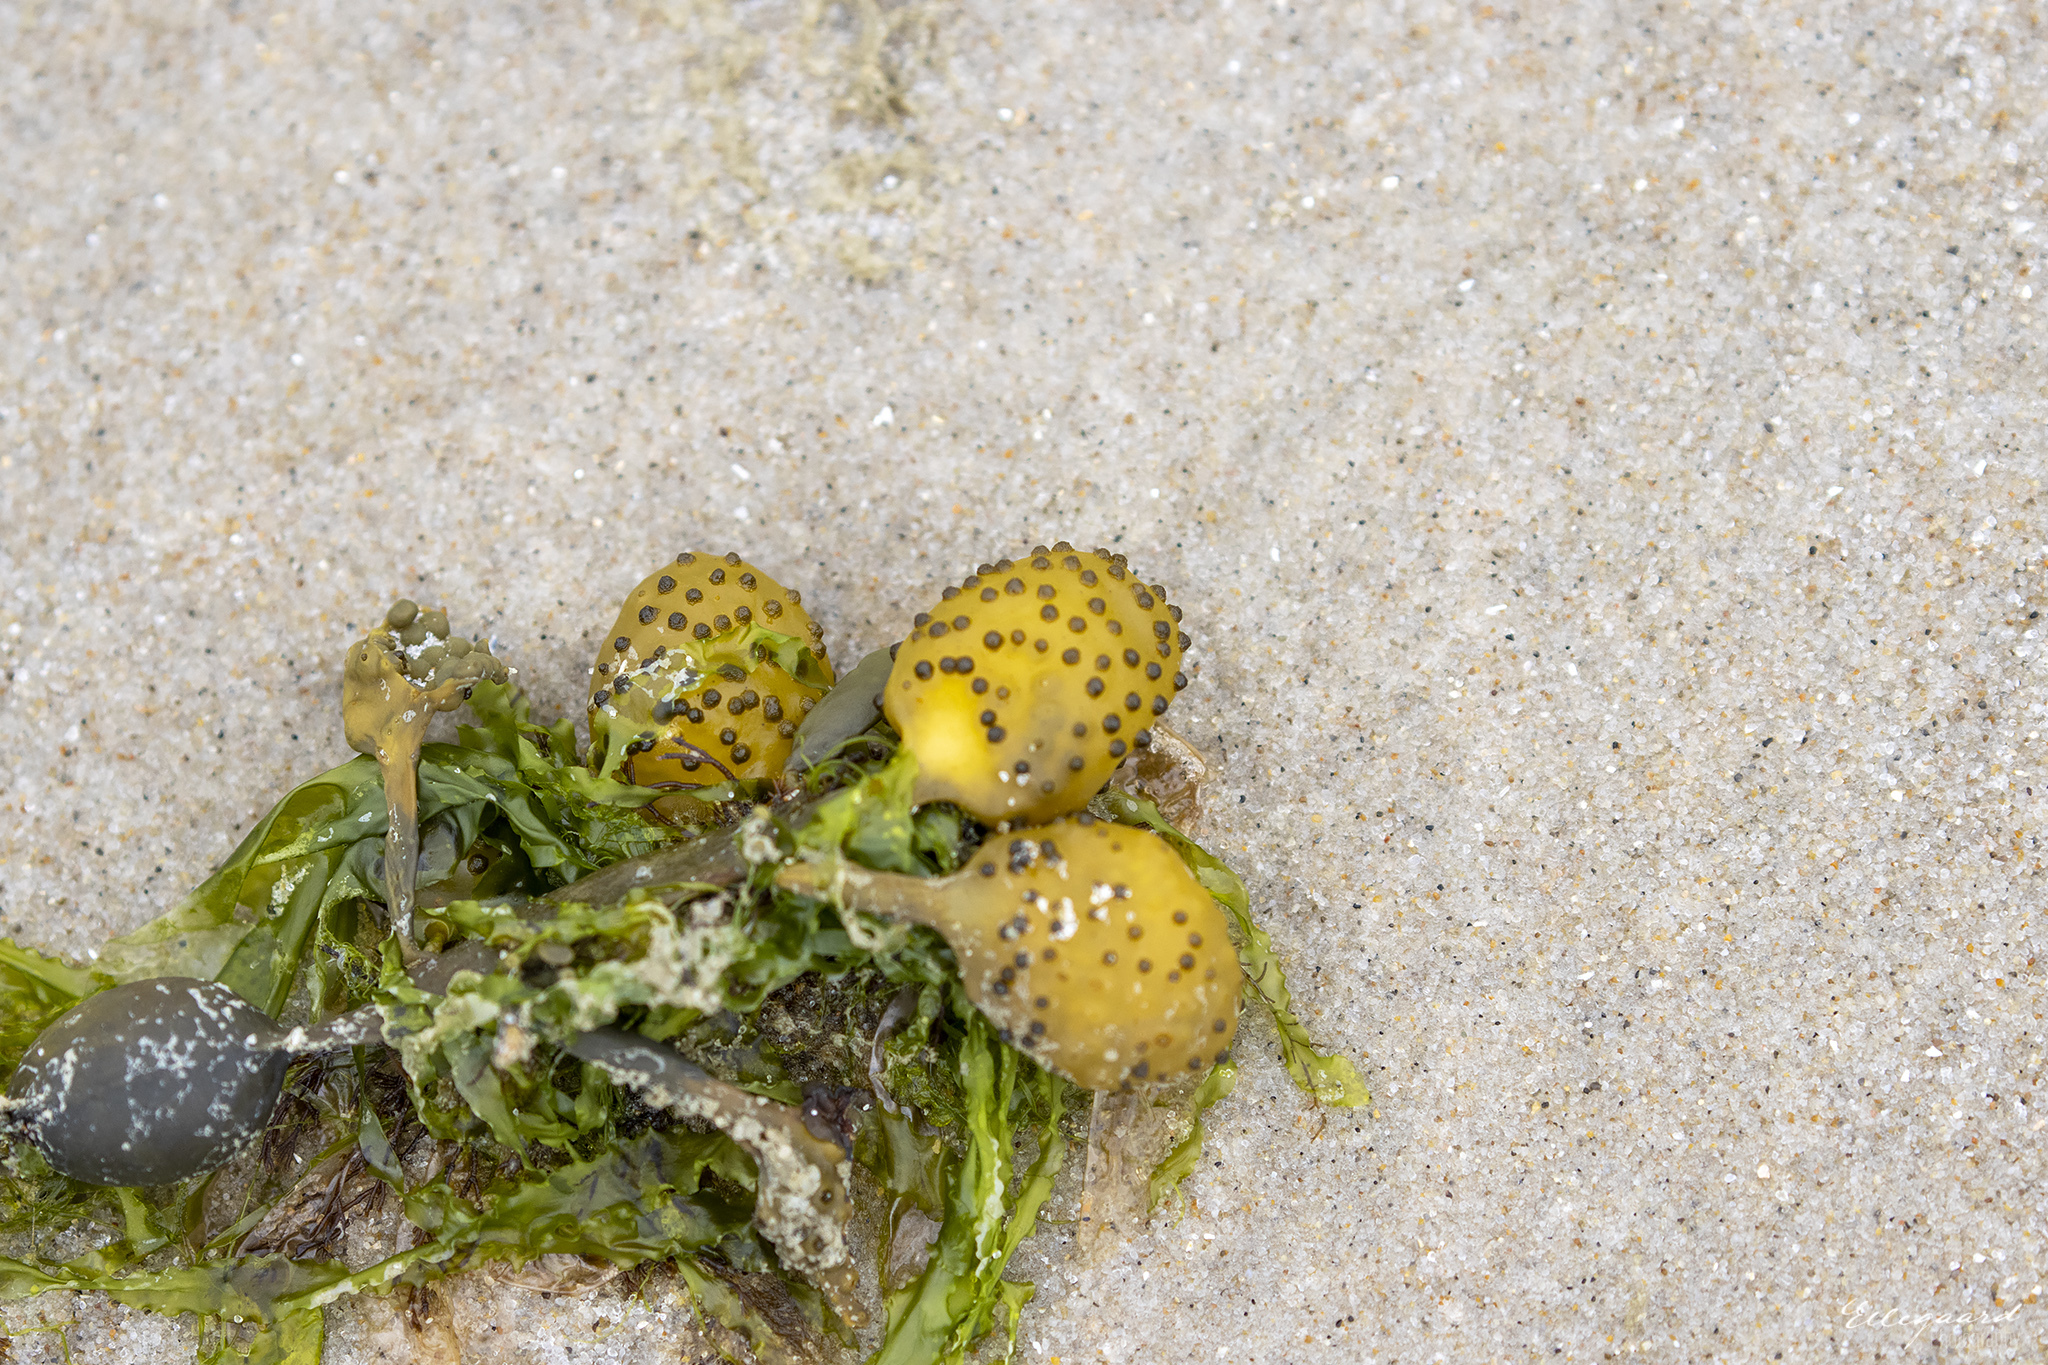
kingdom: Chromista
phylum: Ochrophyta
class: Phaeophyceae
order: Fucales
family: Fucaceae
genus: Ascophyllum
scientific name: Ascophyllum nodosum
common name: Knotted wrack
